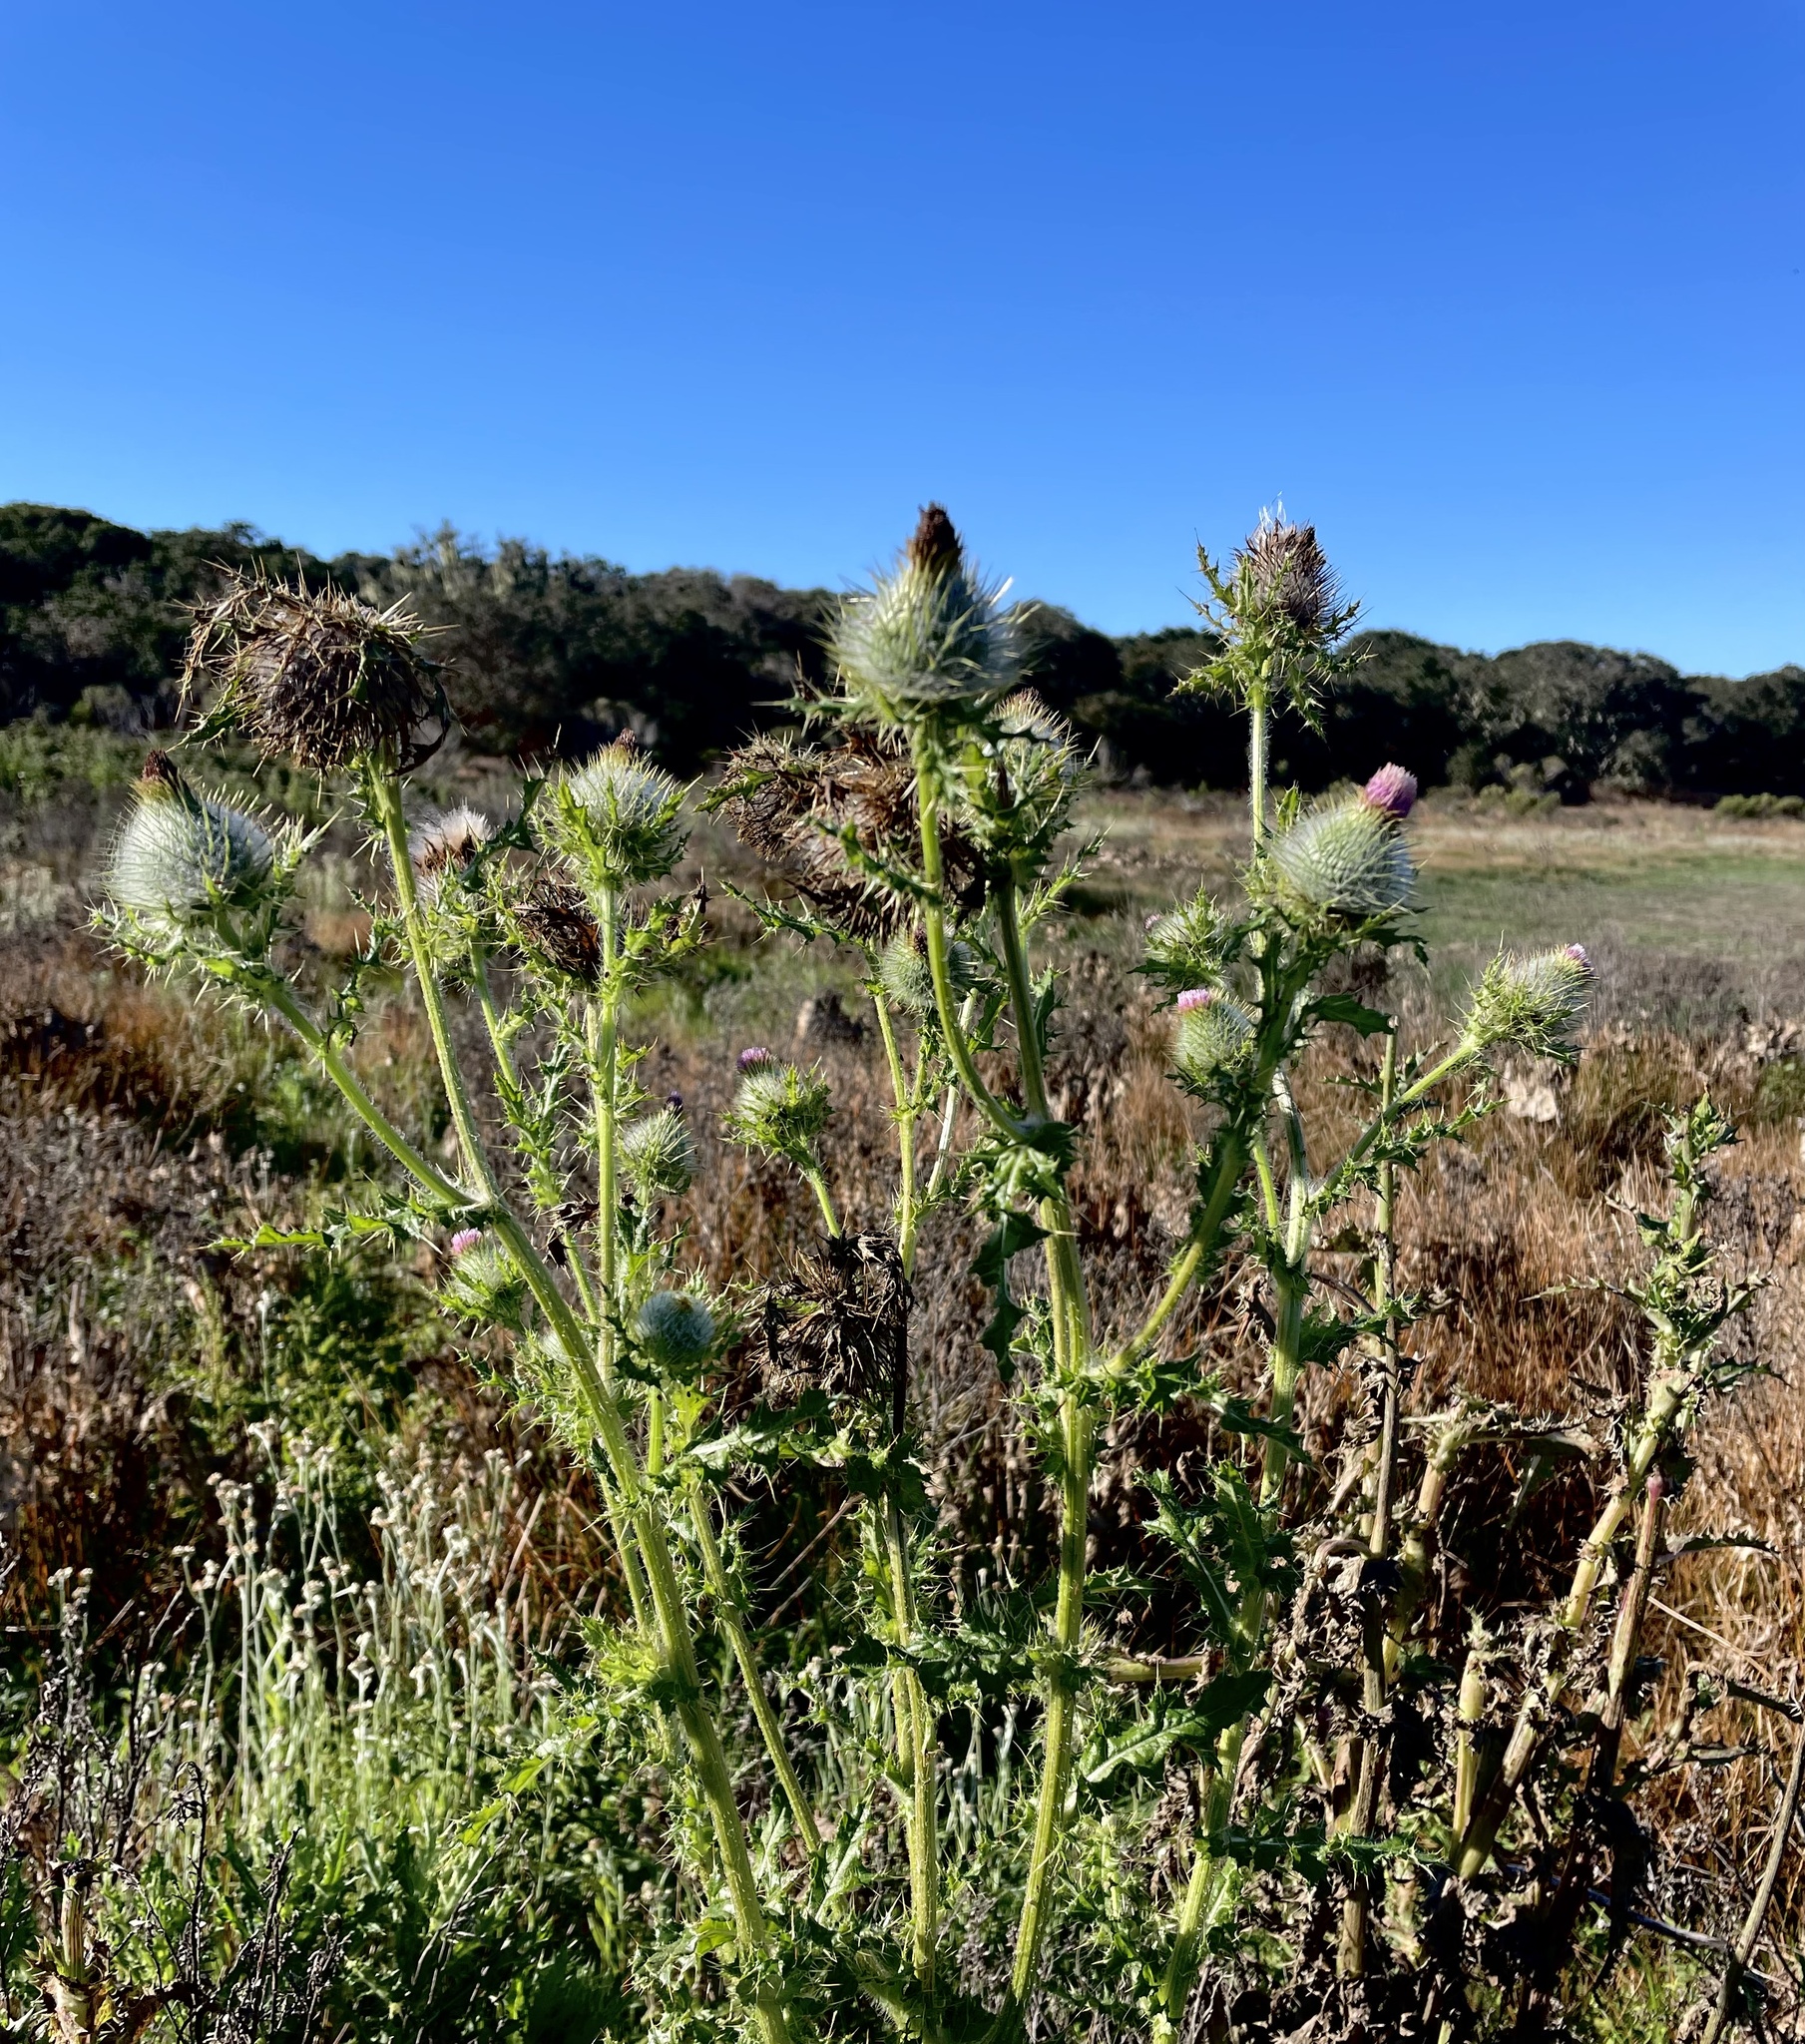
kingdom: Plantae
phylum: Tracheophyta
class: Magnoliopsida
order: Asterales
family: Asteraceae
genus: Cirsium
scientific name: Cirsium brevistylum
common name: Indian thistle
